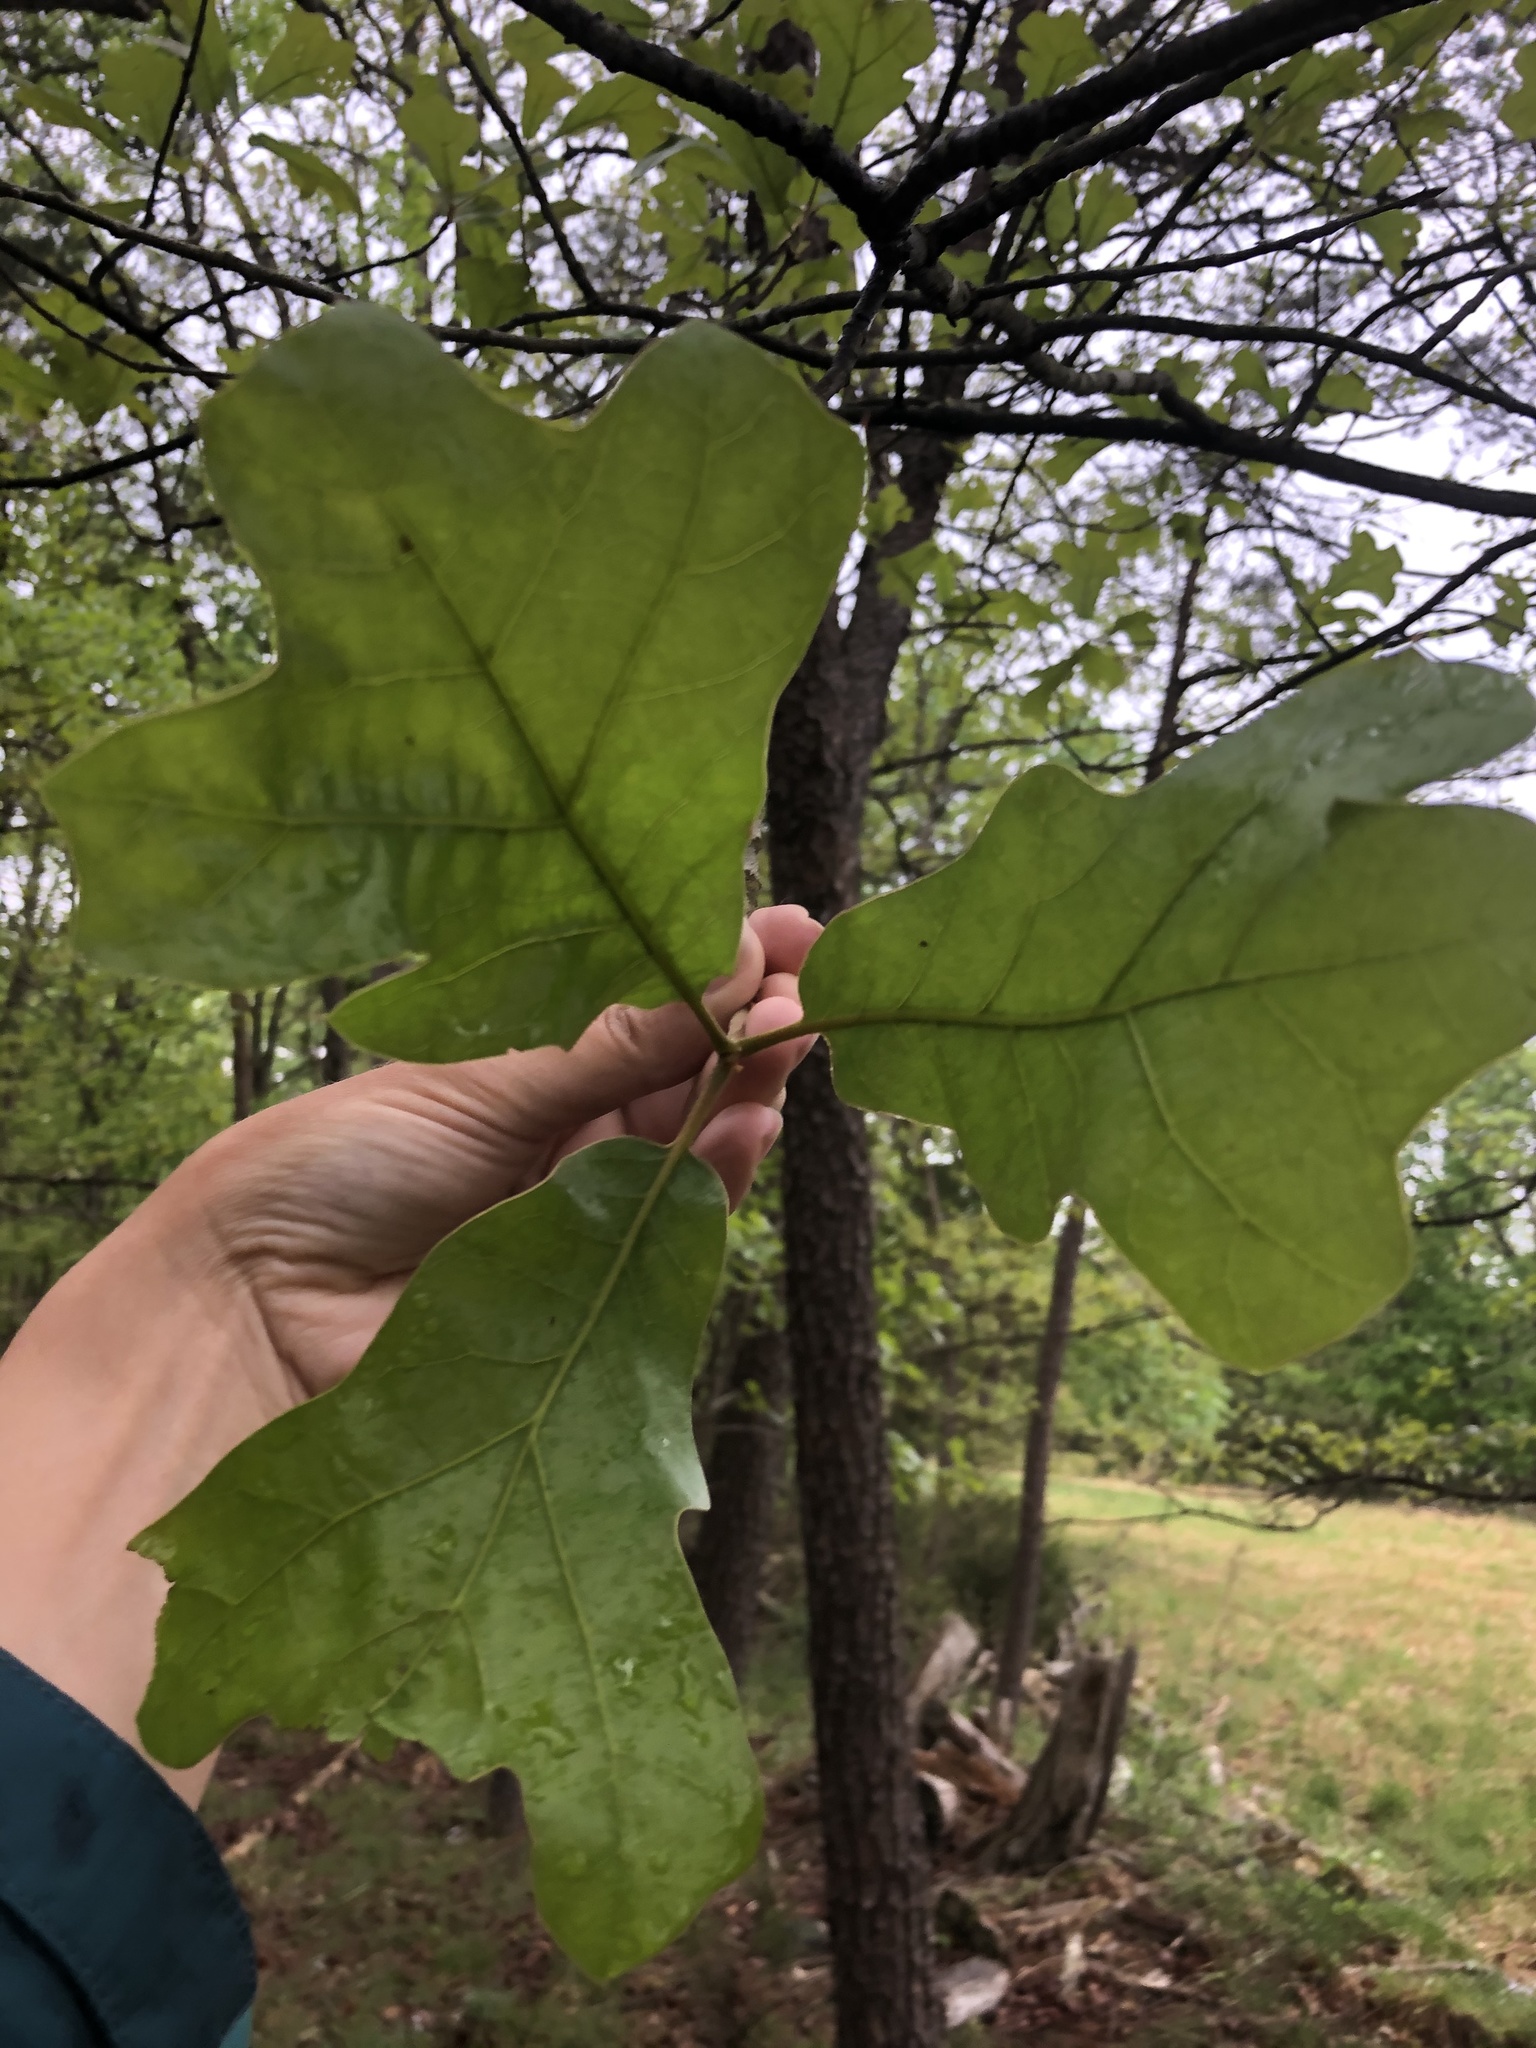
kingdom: Plantae
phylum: Tracheophyta
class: Magnoliopsida
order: Fagales
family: Fagaceae
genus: Quercus
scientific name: Quercus marilandica
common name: Blackjack oak
